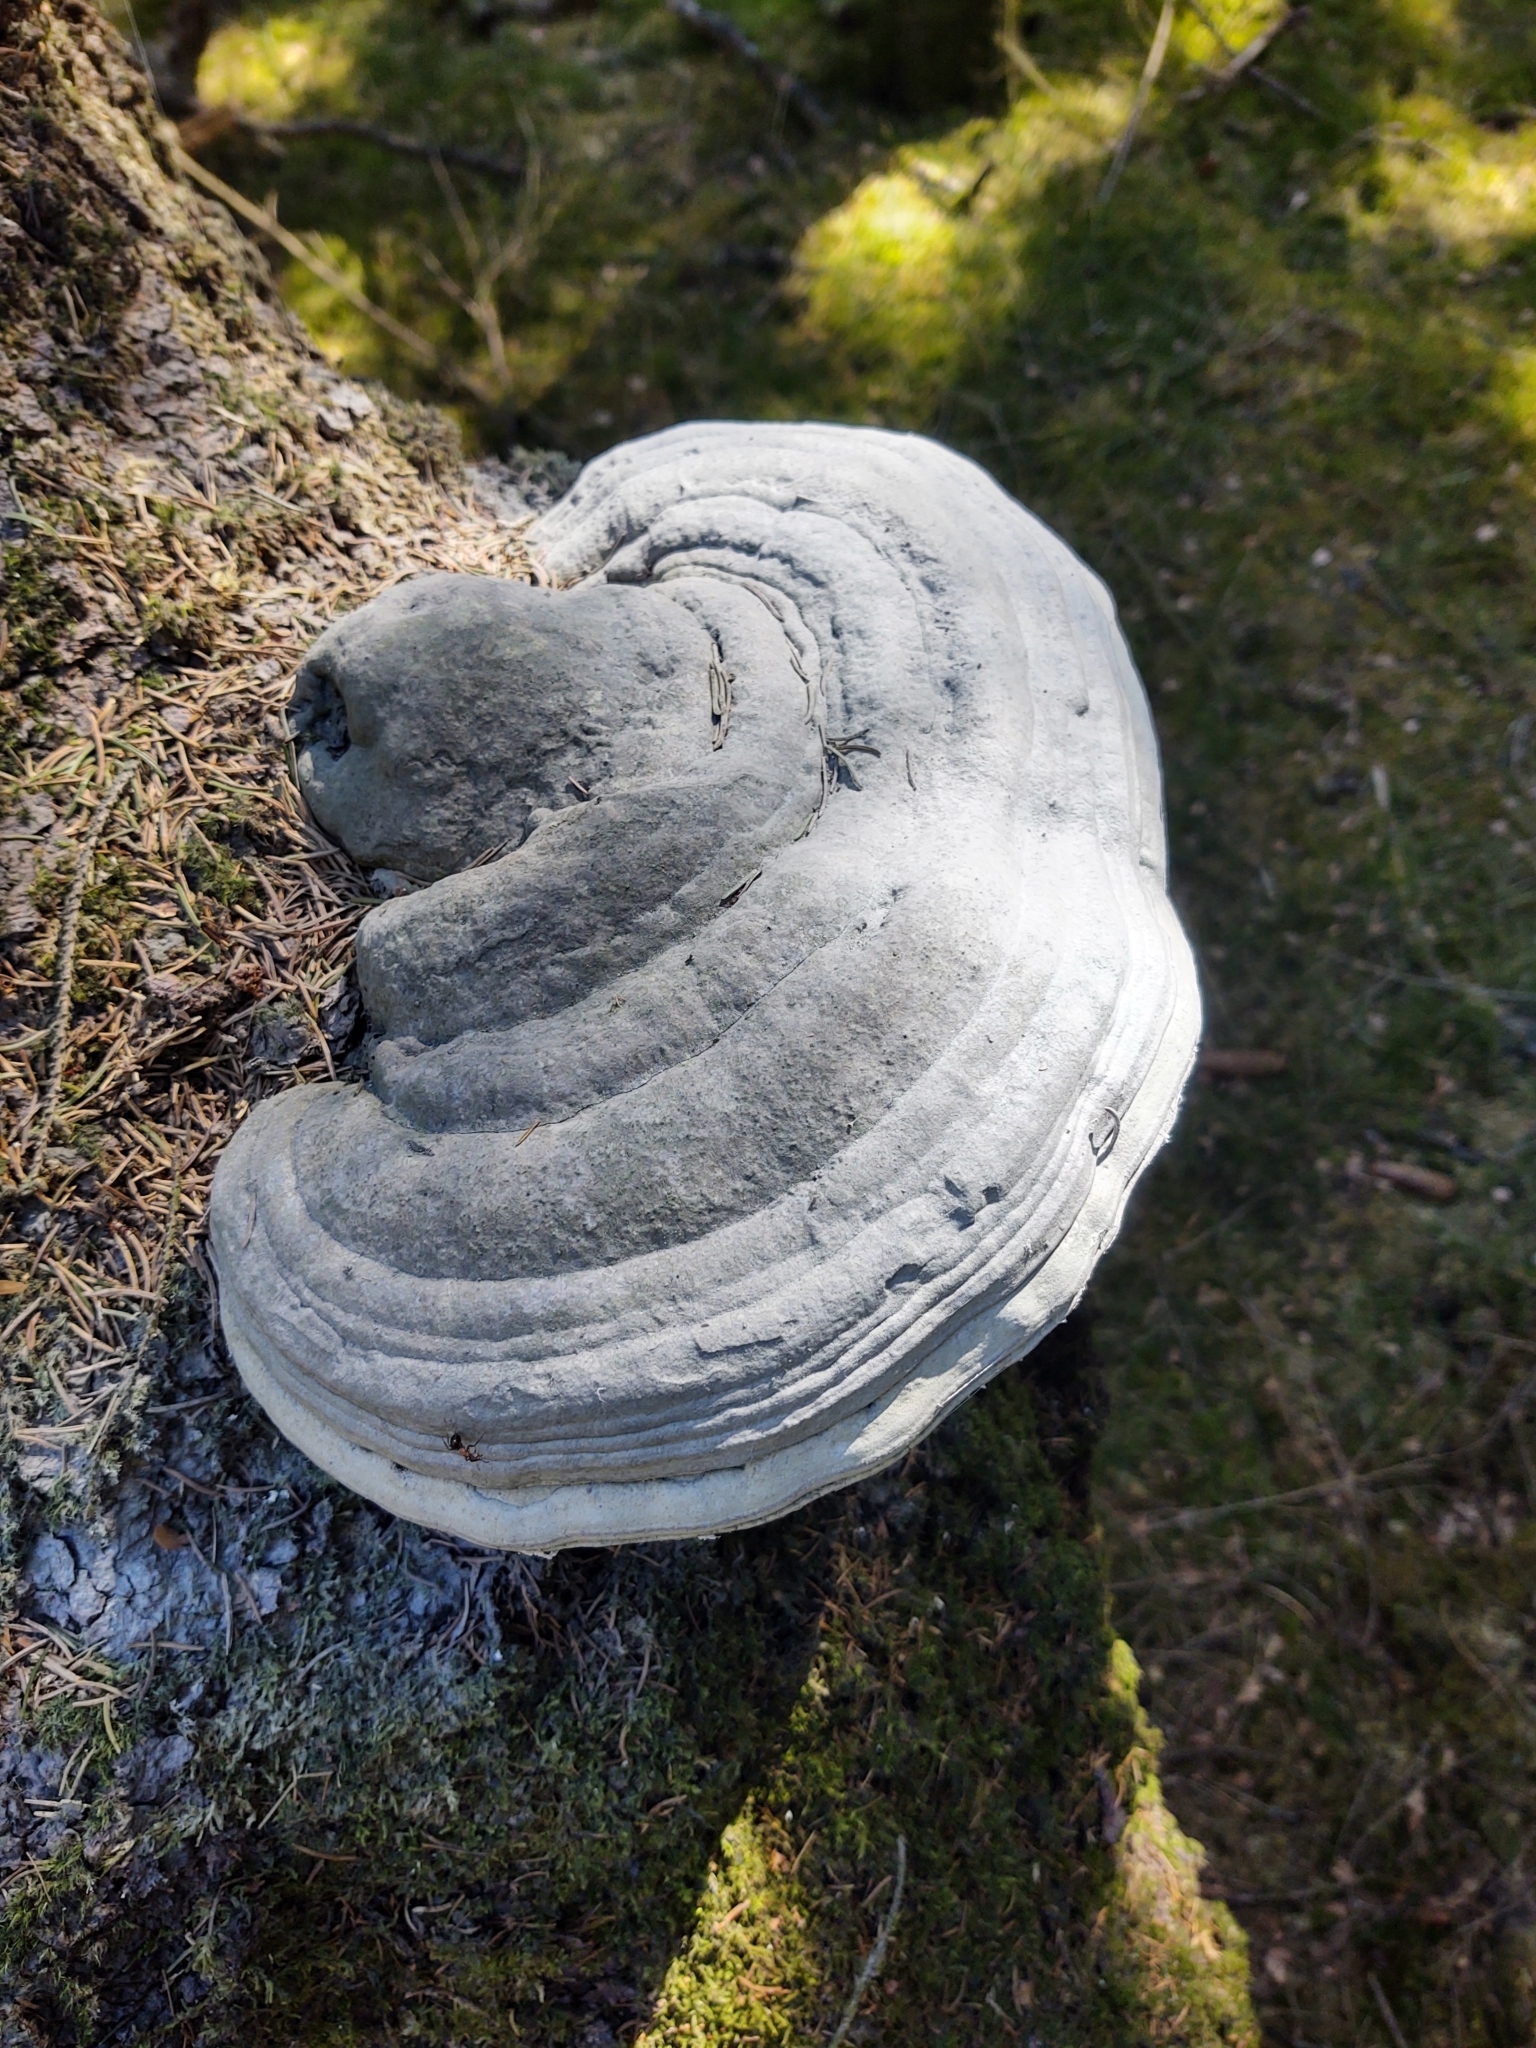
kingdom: Fungi
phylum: Basidiomycota
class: Agaricomycetes
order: Polyporales
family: Polyporaceae
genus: Fomes
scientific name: Fomes fomentarius
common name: Hoof fungus
